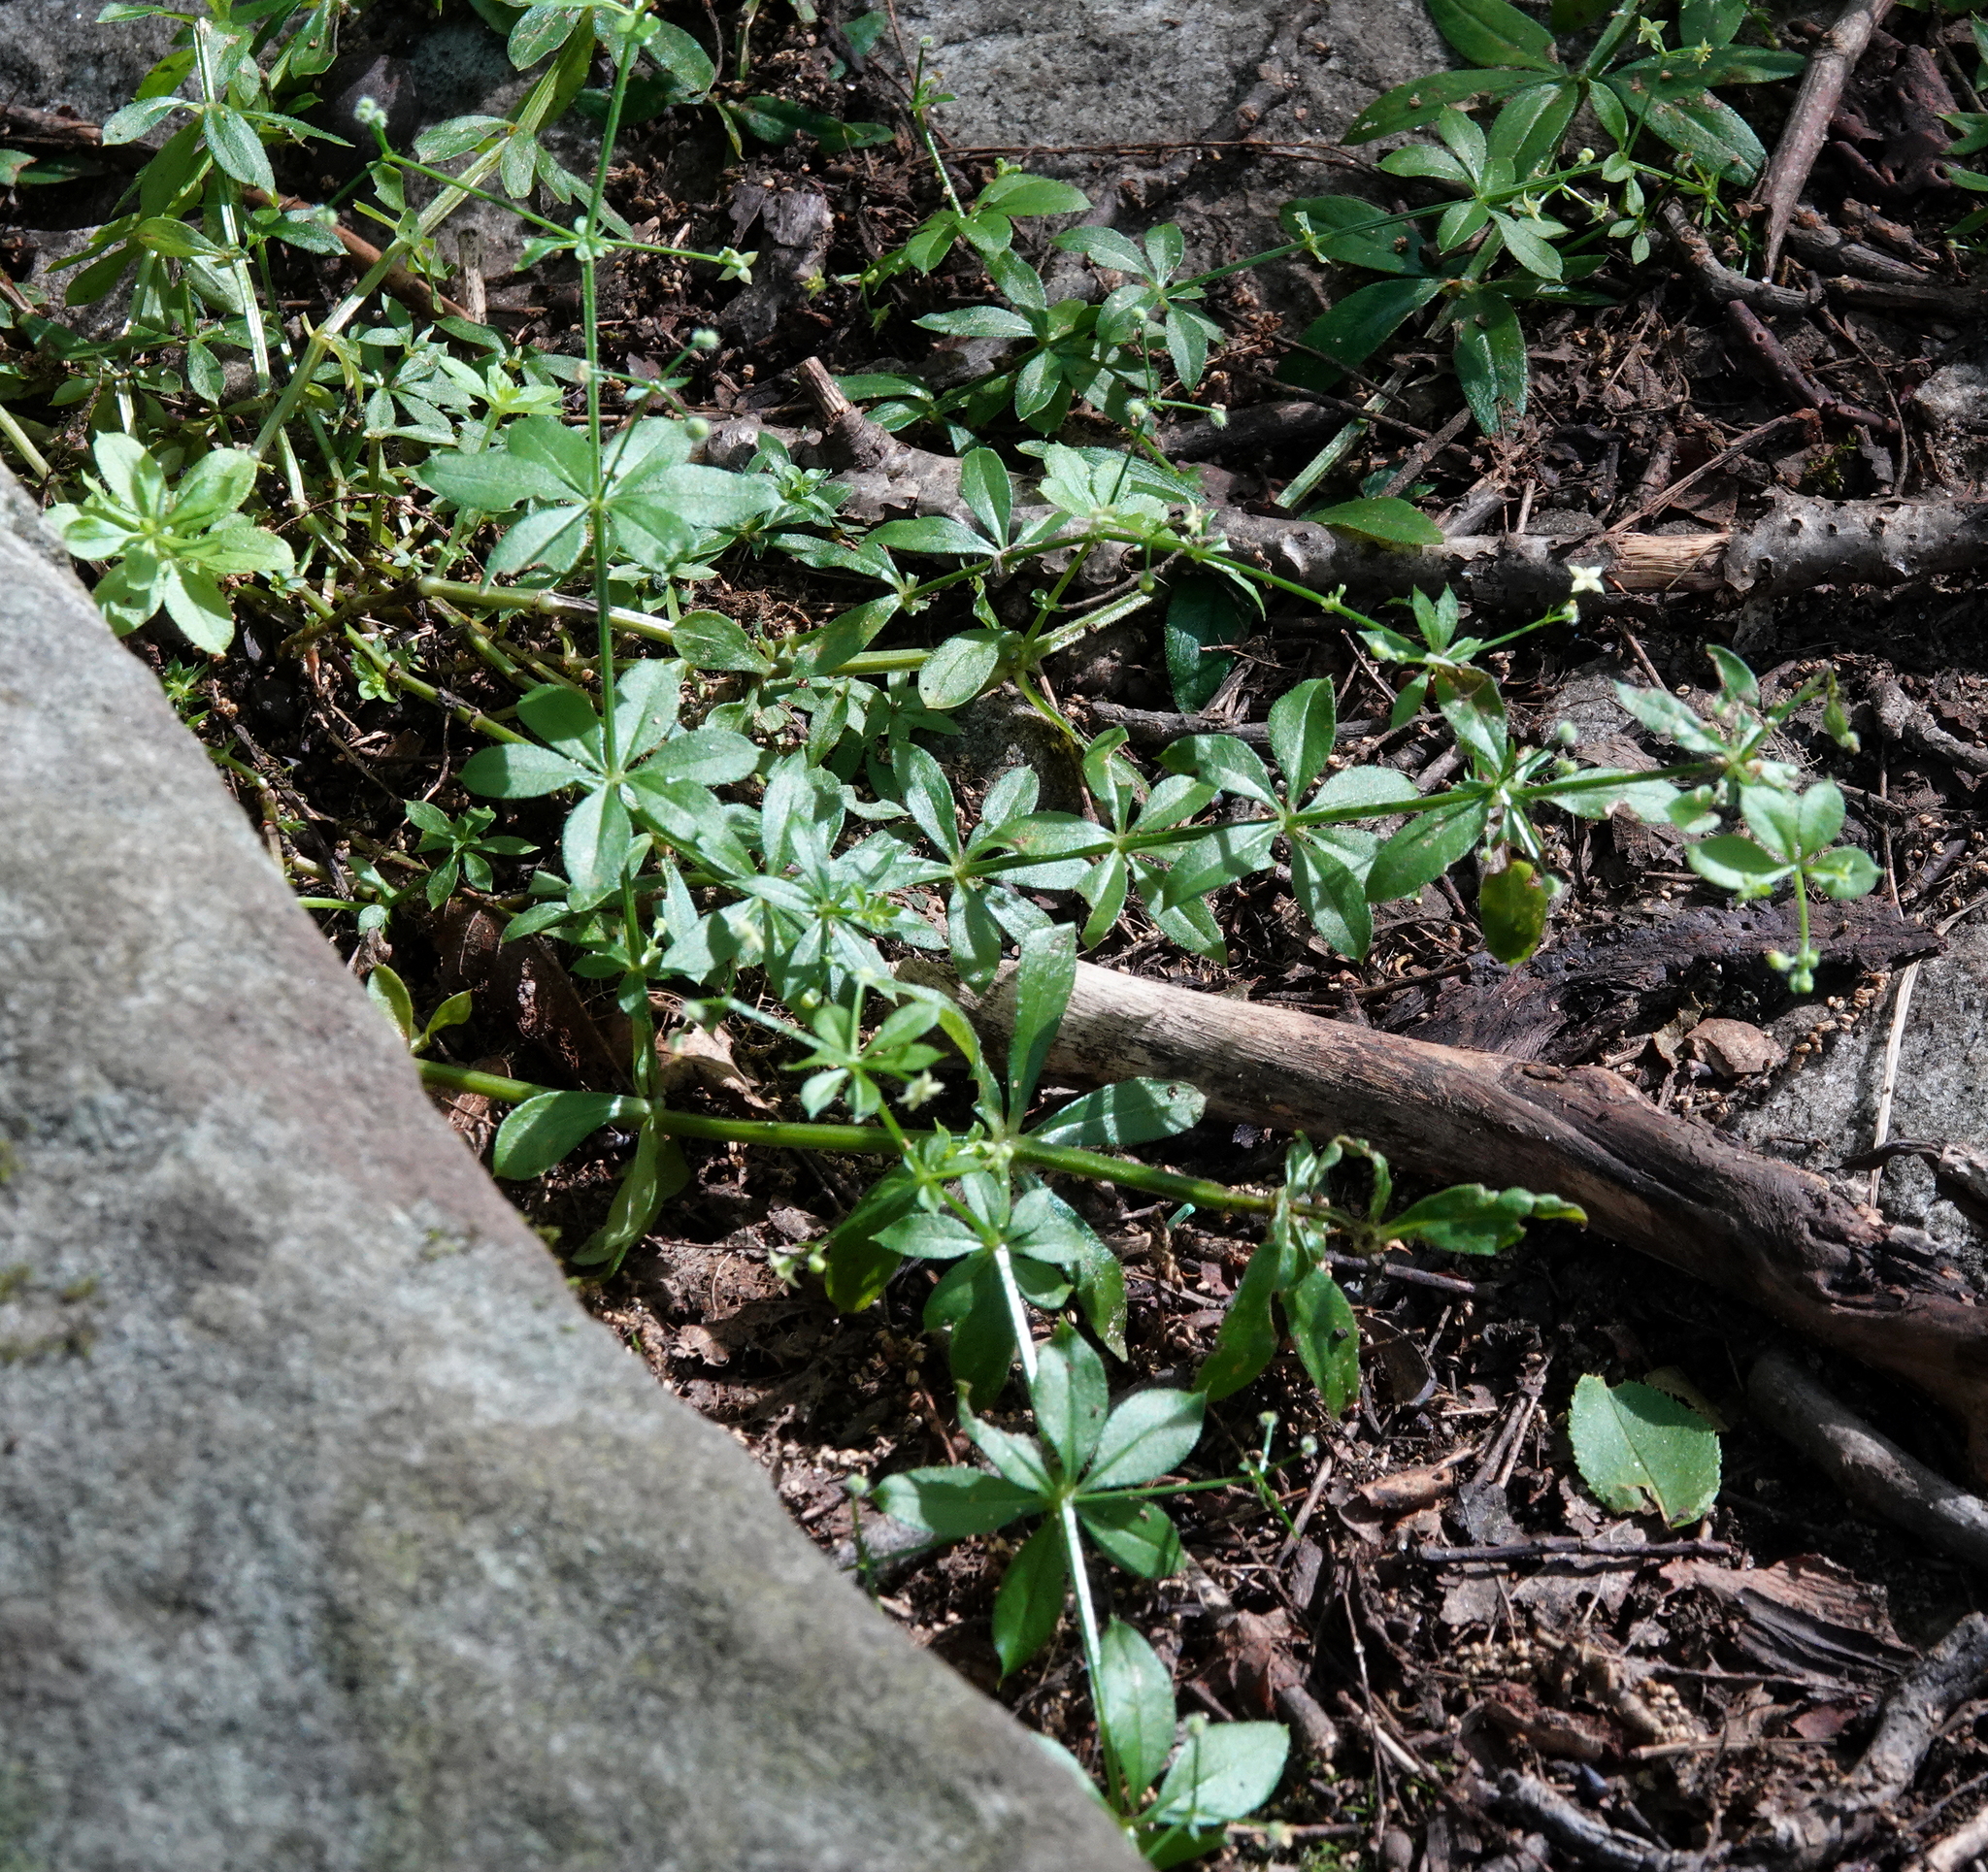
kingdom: Plantae
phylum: Tracheophyta
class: Magnoliopsida
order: Gentianales
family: Rubiaceae
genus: Galium
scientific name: Galium triflorum
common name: Fragrant bedstraw
